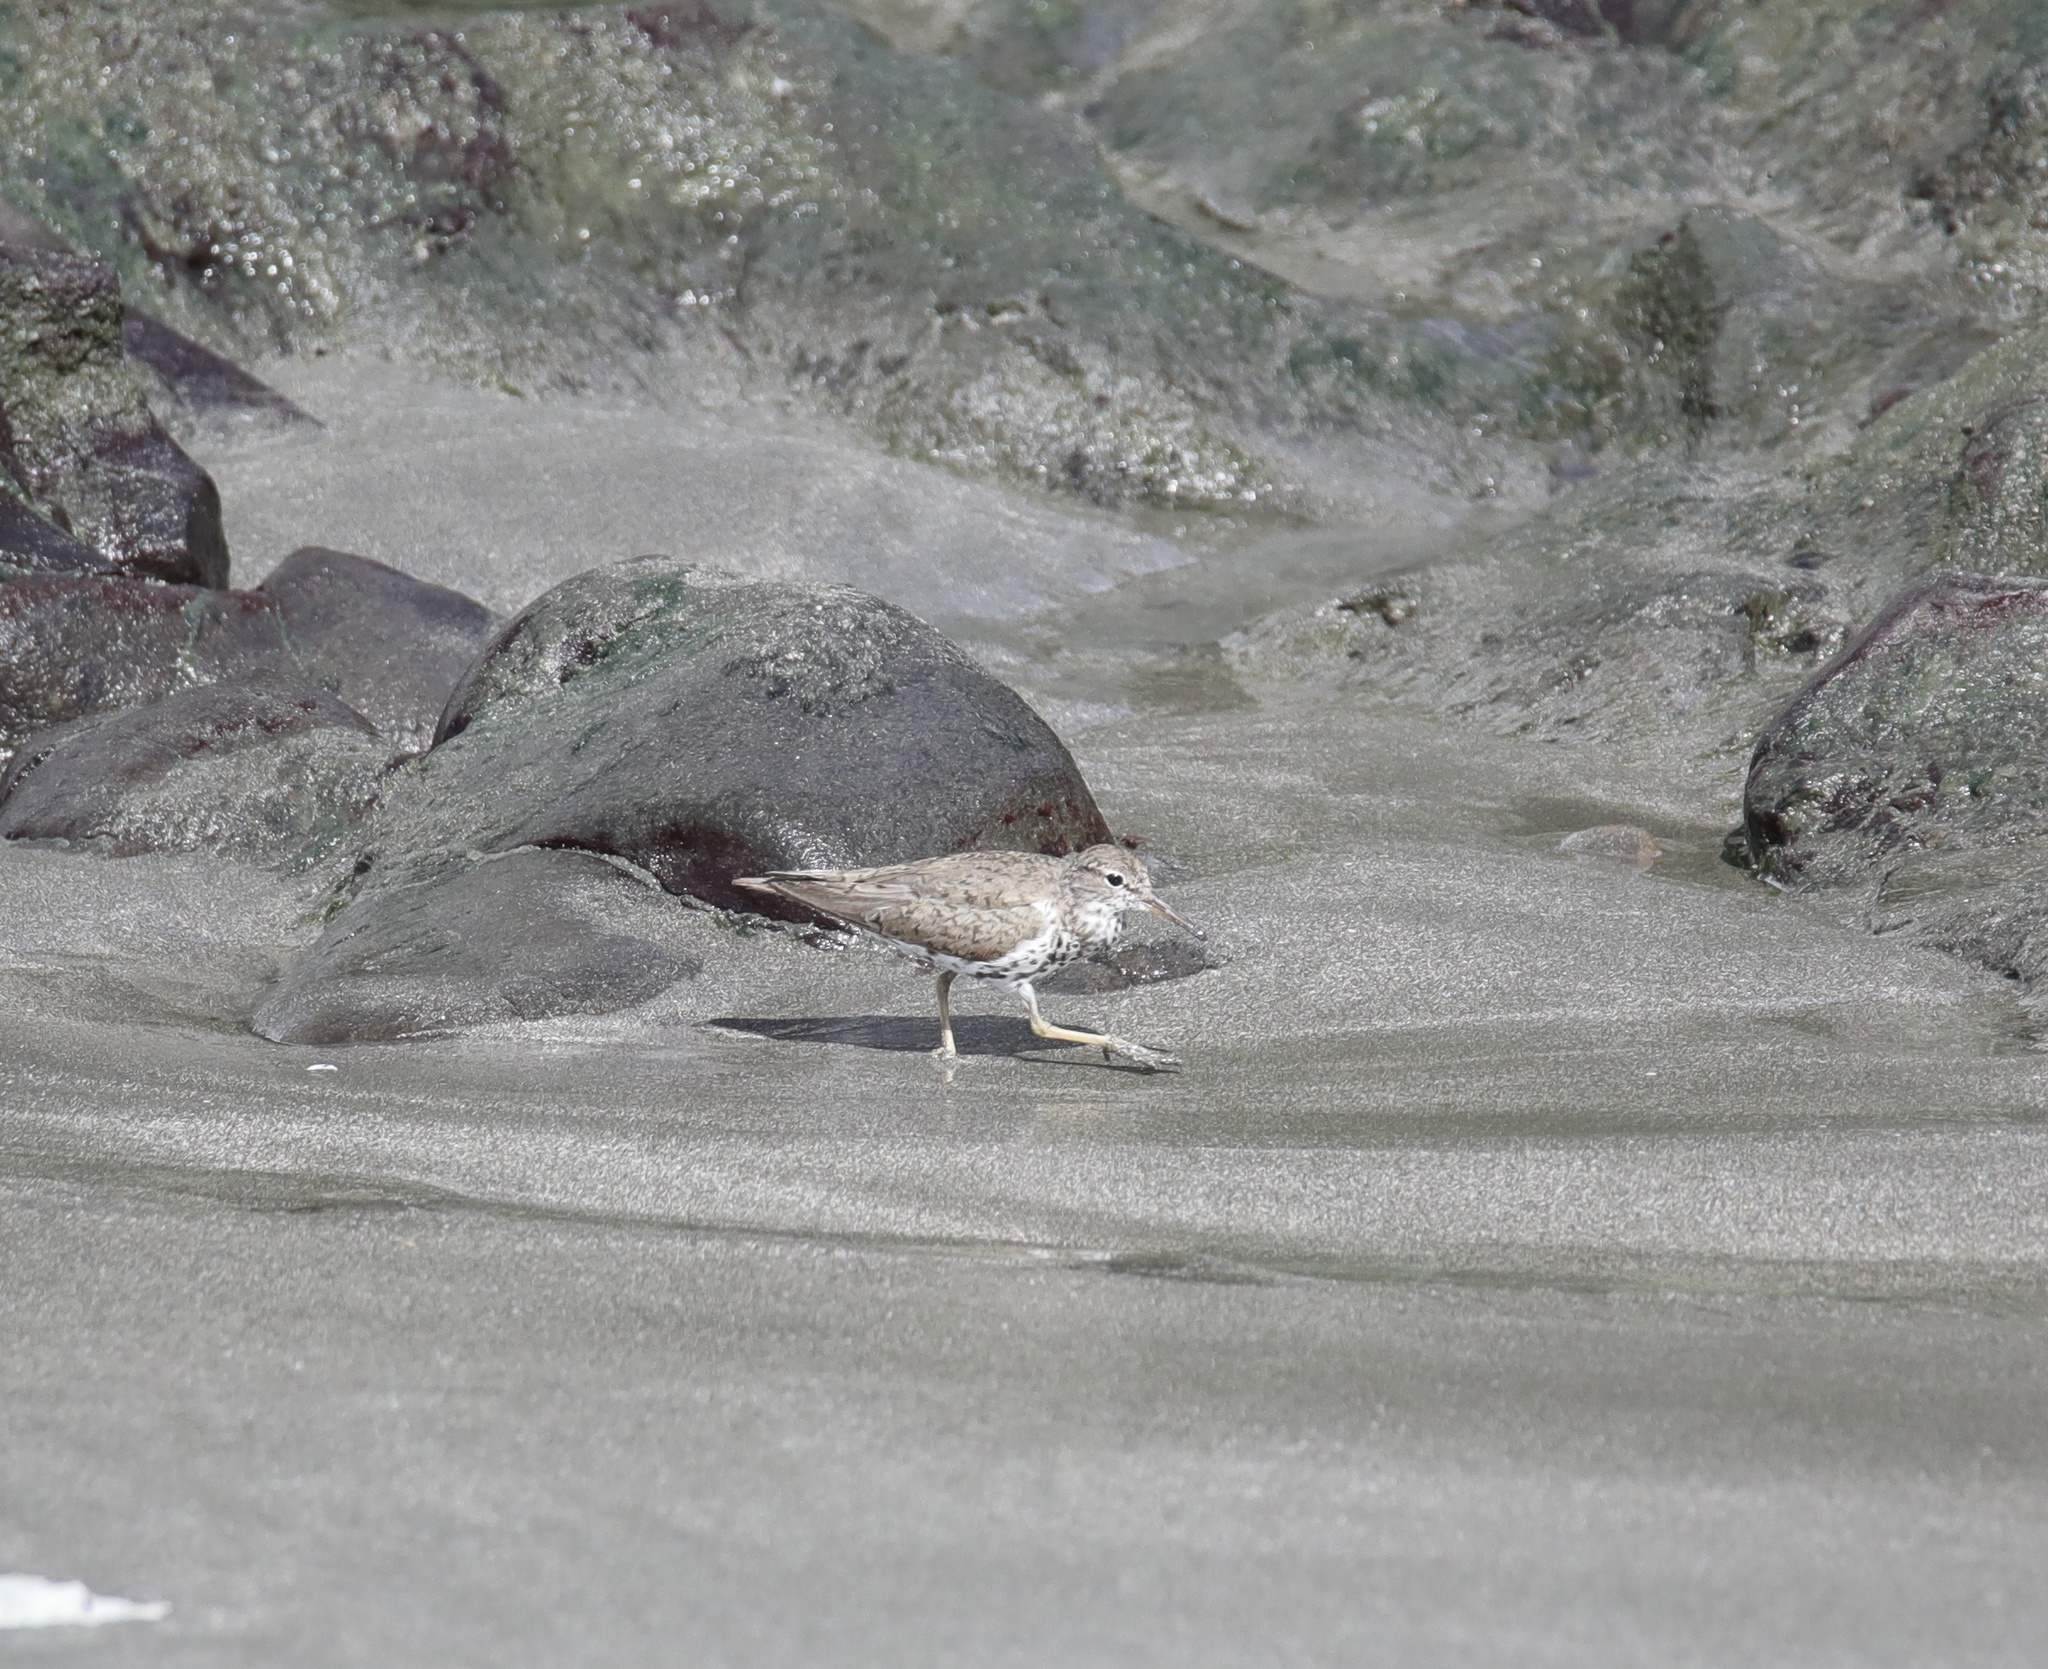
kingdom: Animalia
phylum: Chordata
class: Aves
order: Charadriiformes
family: Scolopacidae
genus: Actitis
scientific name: Actitis macularius
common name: Spotted sandpiper
